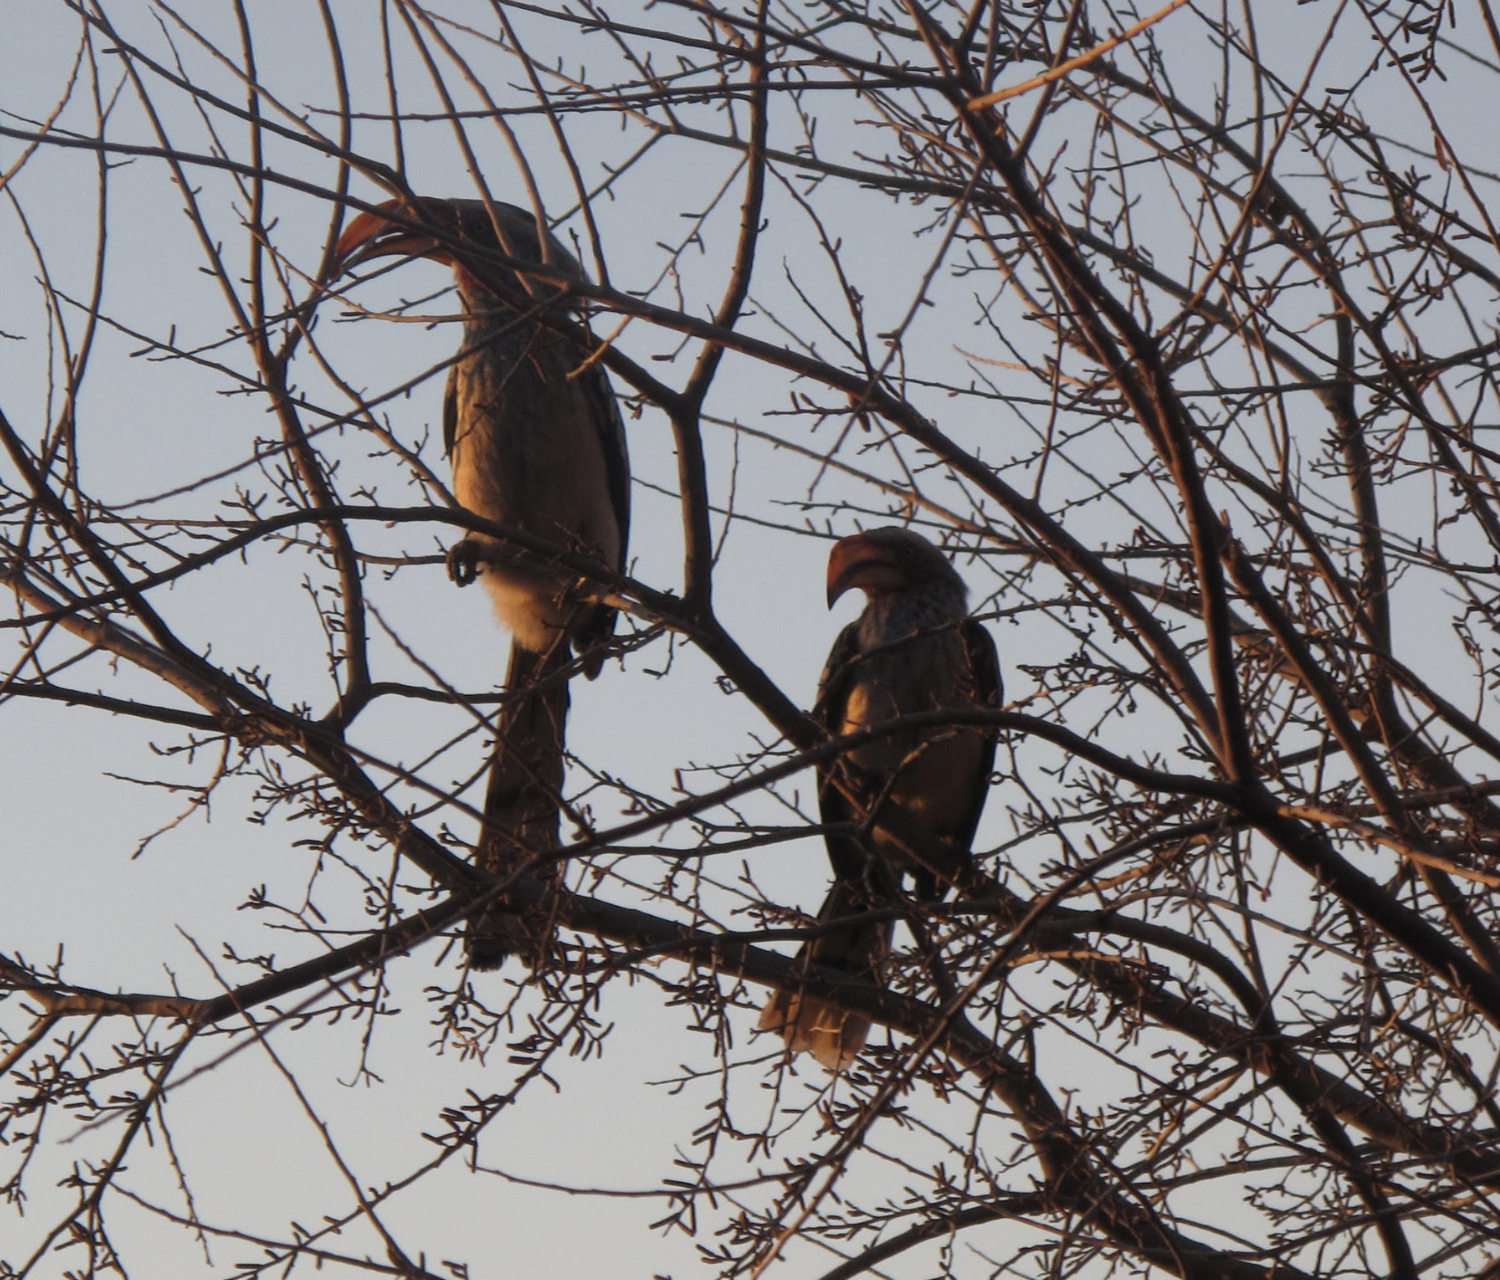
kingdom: Animalia
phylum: Chordata
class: Aves
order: Bucerotiformes
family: Bucerotidae
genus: Tockus
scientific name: Tockus leucomelas
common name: Southern yellow-billed hornbill
